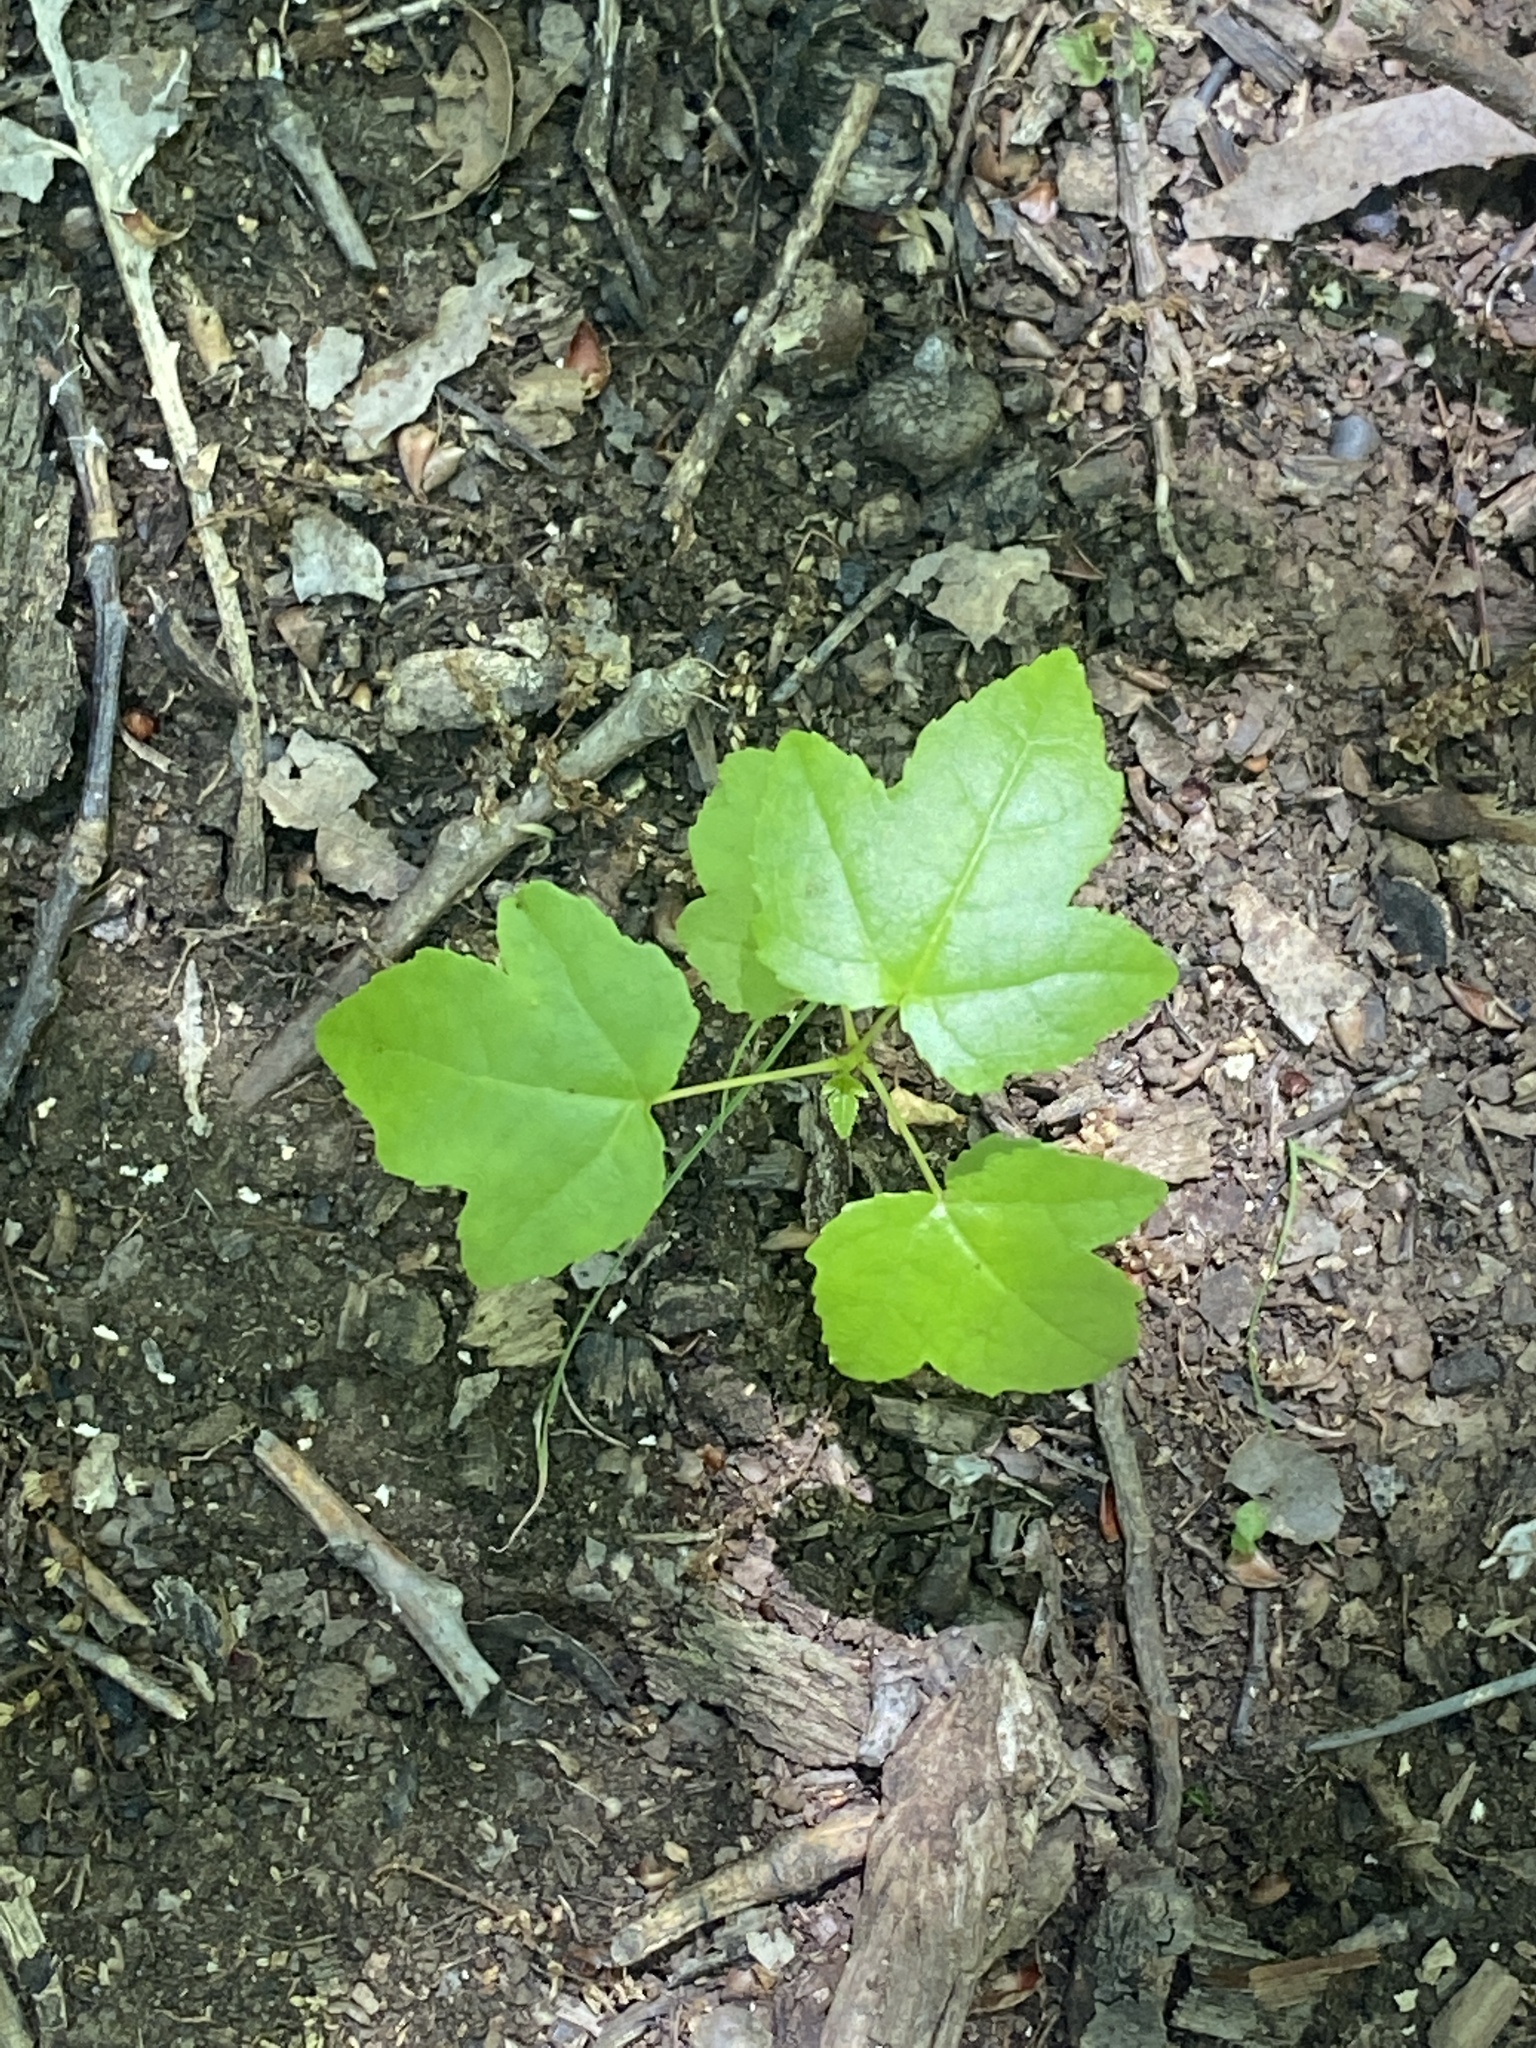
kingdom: Plantae
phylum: Tracheophyta
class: Magnoliopsida
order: Saxifragales
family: Altingiaceae
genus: Liquidambar
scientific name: Liquidambar styraciflua
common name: Sweet gum
